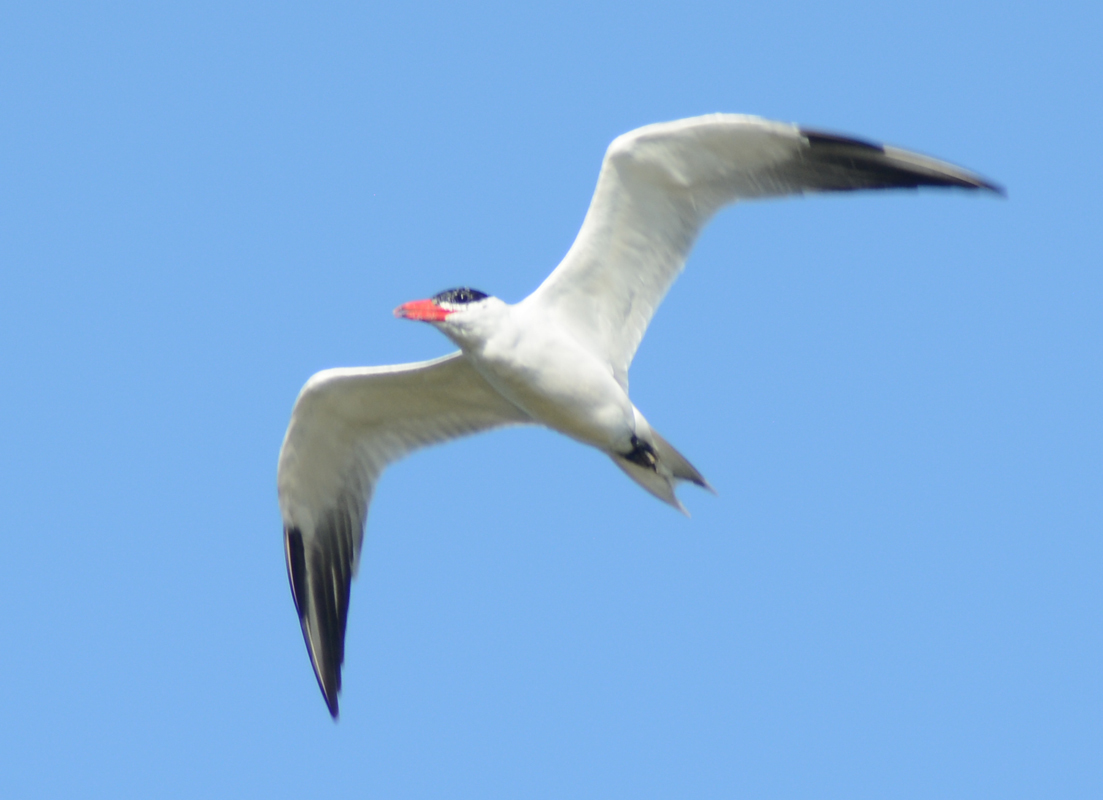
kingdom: Animalia
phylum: Chordata
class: Aves
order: Charadriiformes
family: Laridae
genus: Hydroprogne
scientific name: Hydroprogne caspia
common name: Caspian tern
